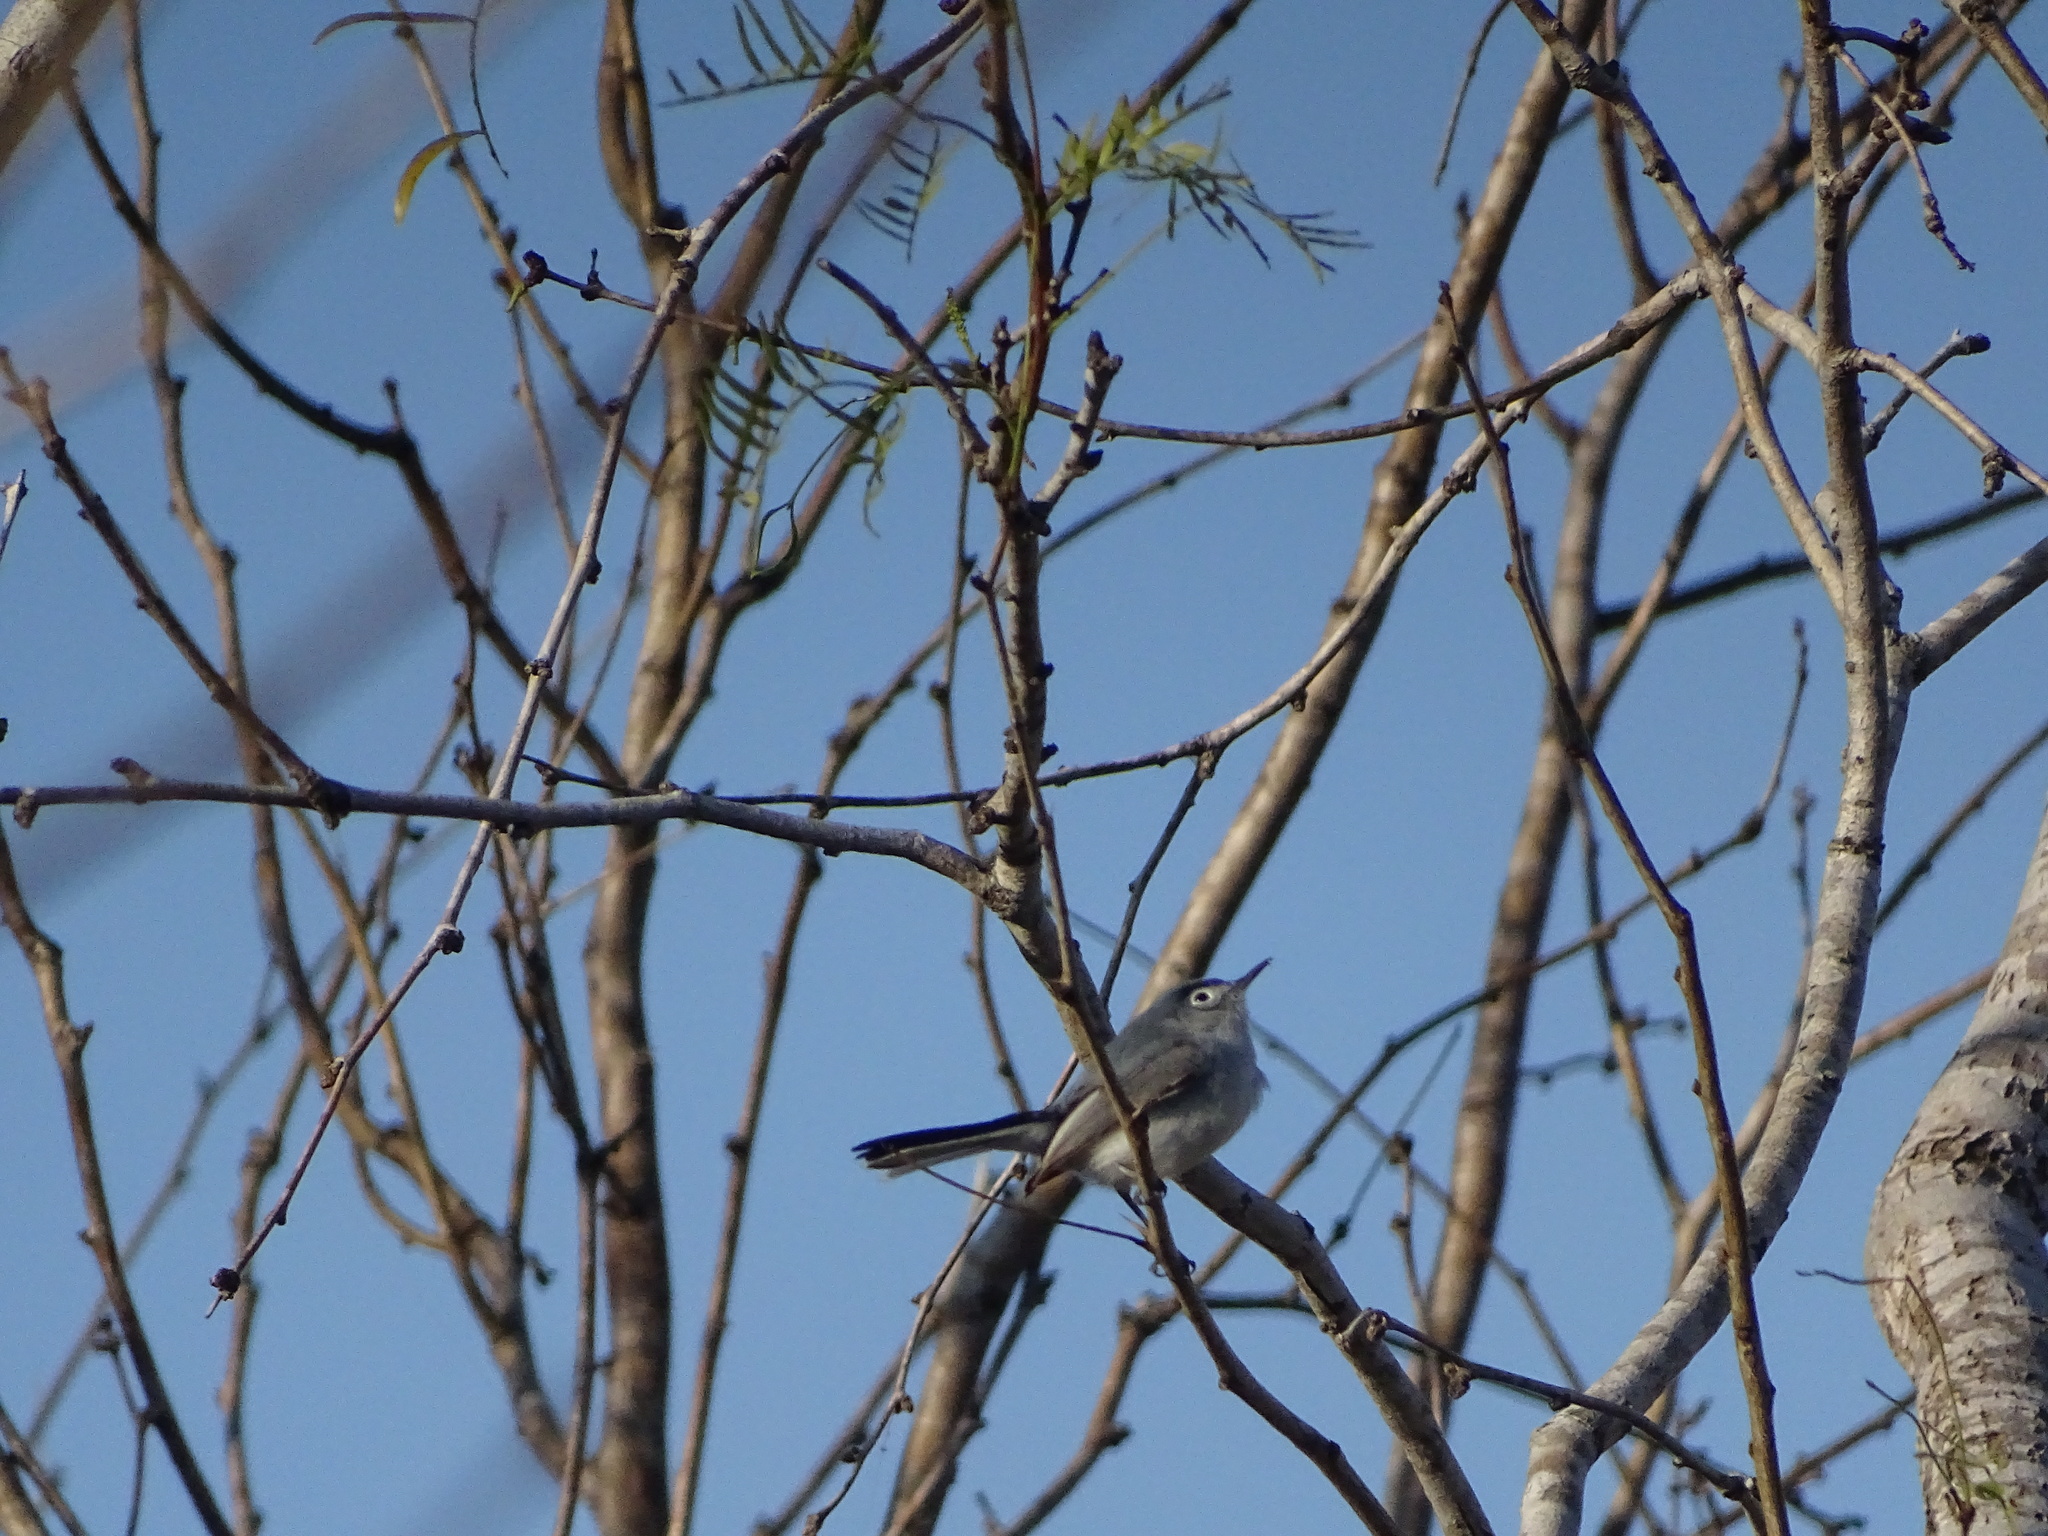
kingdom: Animalia
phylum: Chordata
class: Aves
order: Passeriformes
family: Polioptilidae
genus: Polioptila
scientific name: Polioptila caerulea
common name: Blue-gray gnatcatcher
